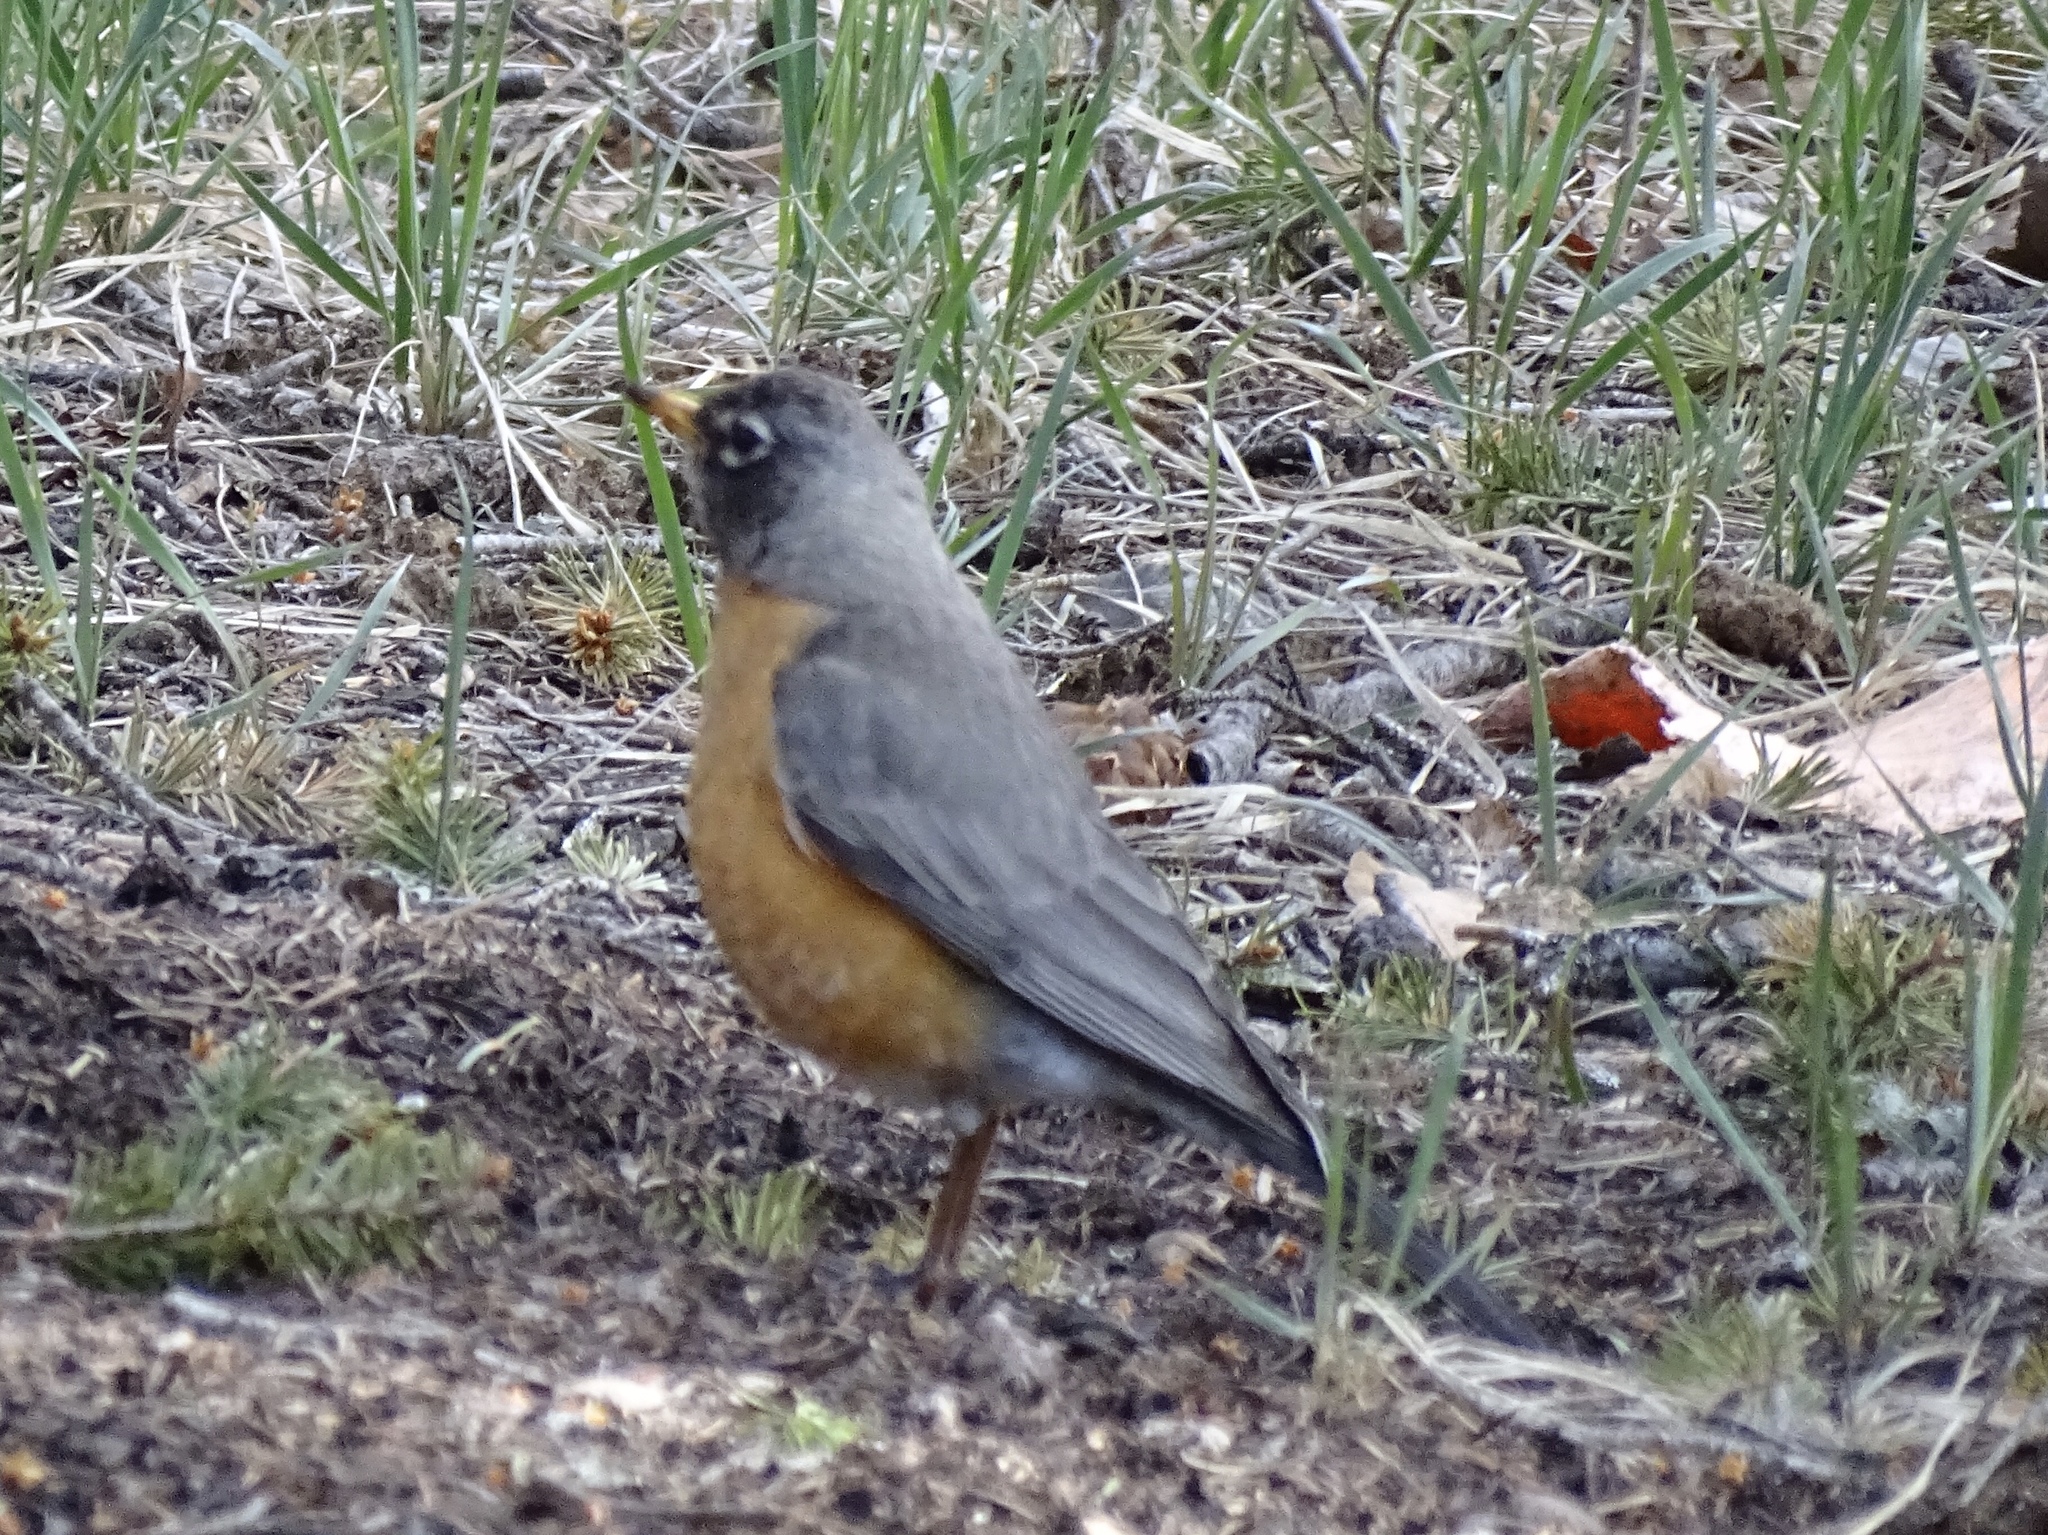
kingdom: Animalia
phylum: Chordata
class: Aves
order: Passeriformes
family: Turdidae
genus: Turdus
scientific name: Turdus migratorius
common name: American robin
